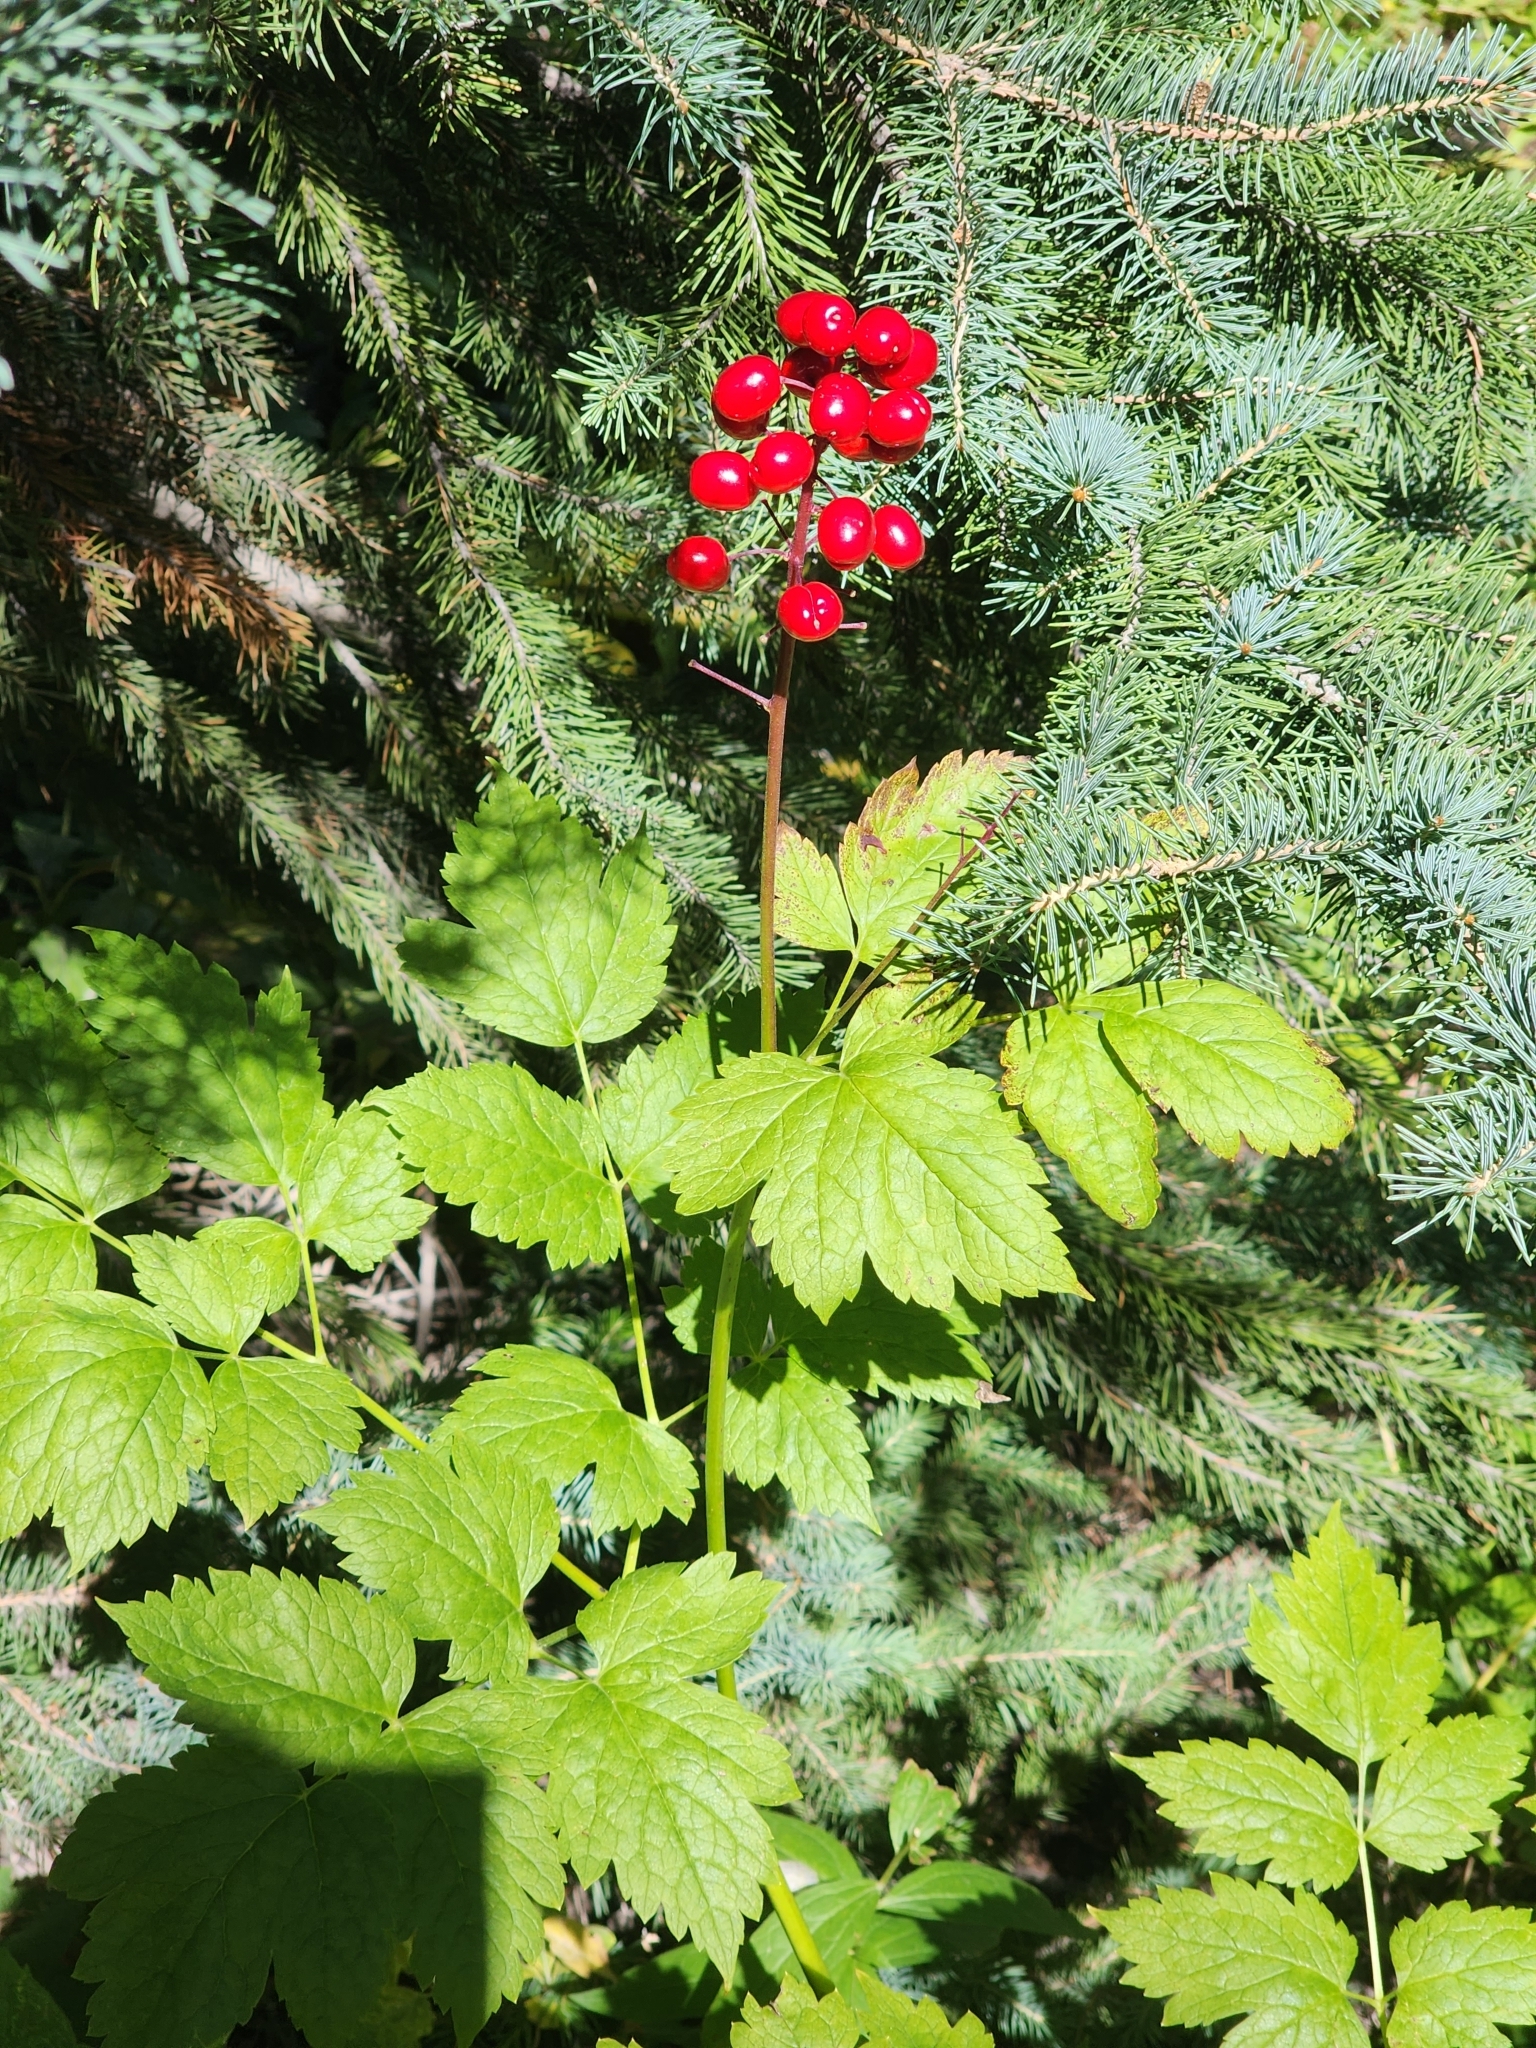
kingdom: Plantae
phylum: Tracheophyta
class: Magnoliopsida
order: Ranunculales
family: Ranunculaceae
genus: Actaea
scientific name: Actaea rubra
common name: Red baneberry
